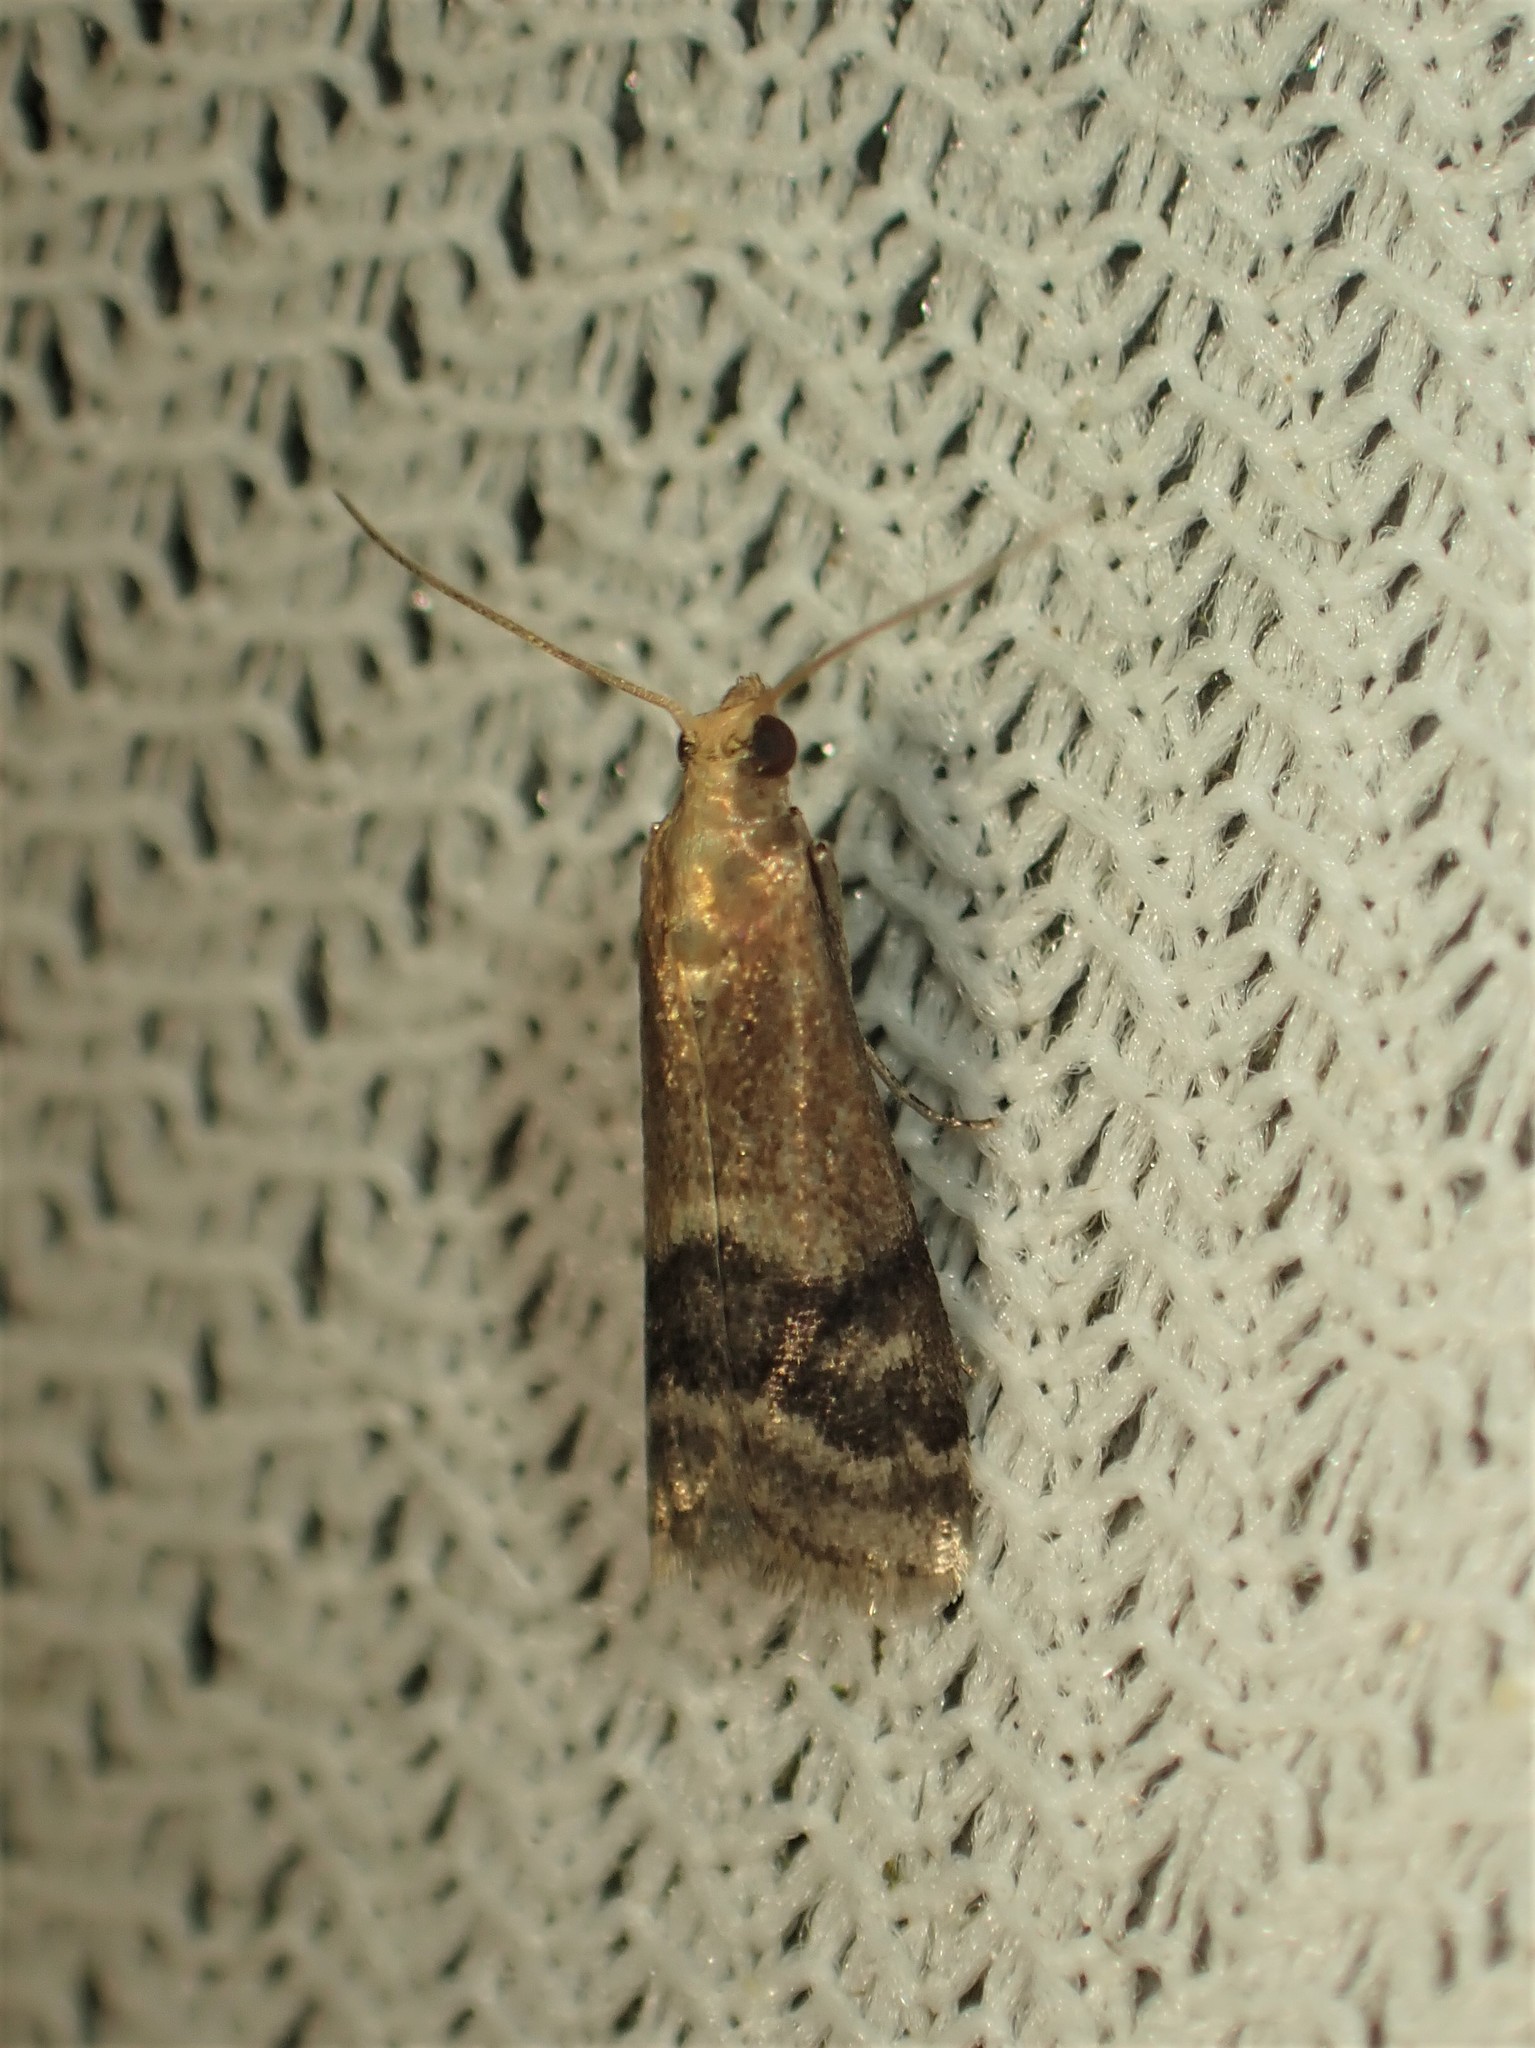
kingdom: Animalia
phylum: Arthropoda
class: Insecta
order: Lepidoptera
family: Pyralidae
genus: Eulogia
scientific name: Eulogia ochrifrontella
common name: Broad-banded eulogia moth
